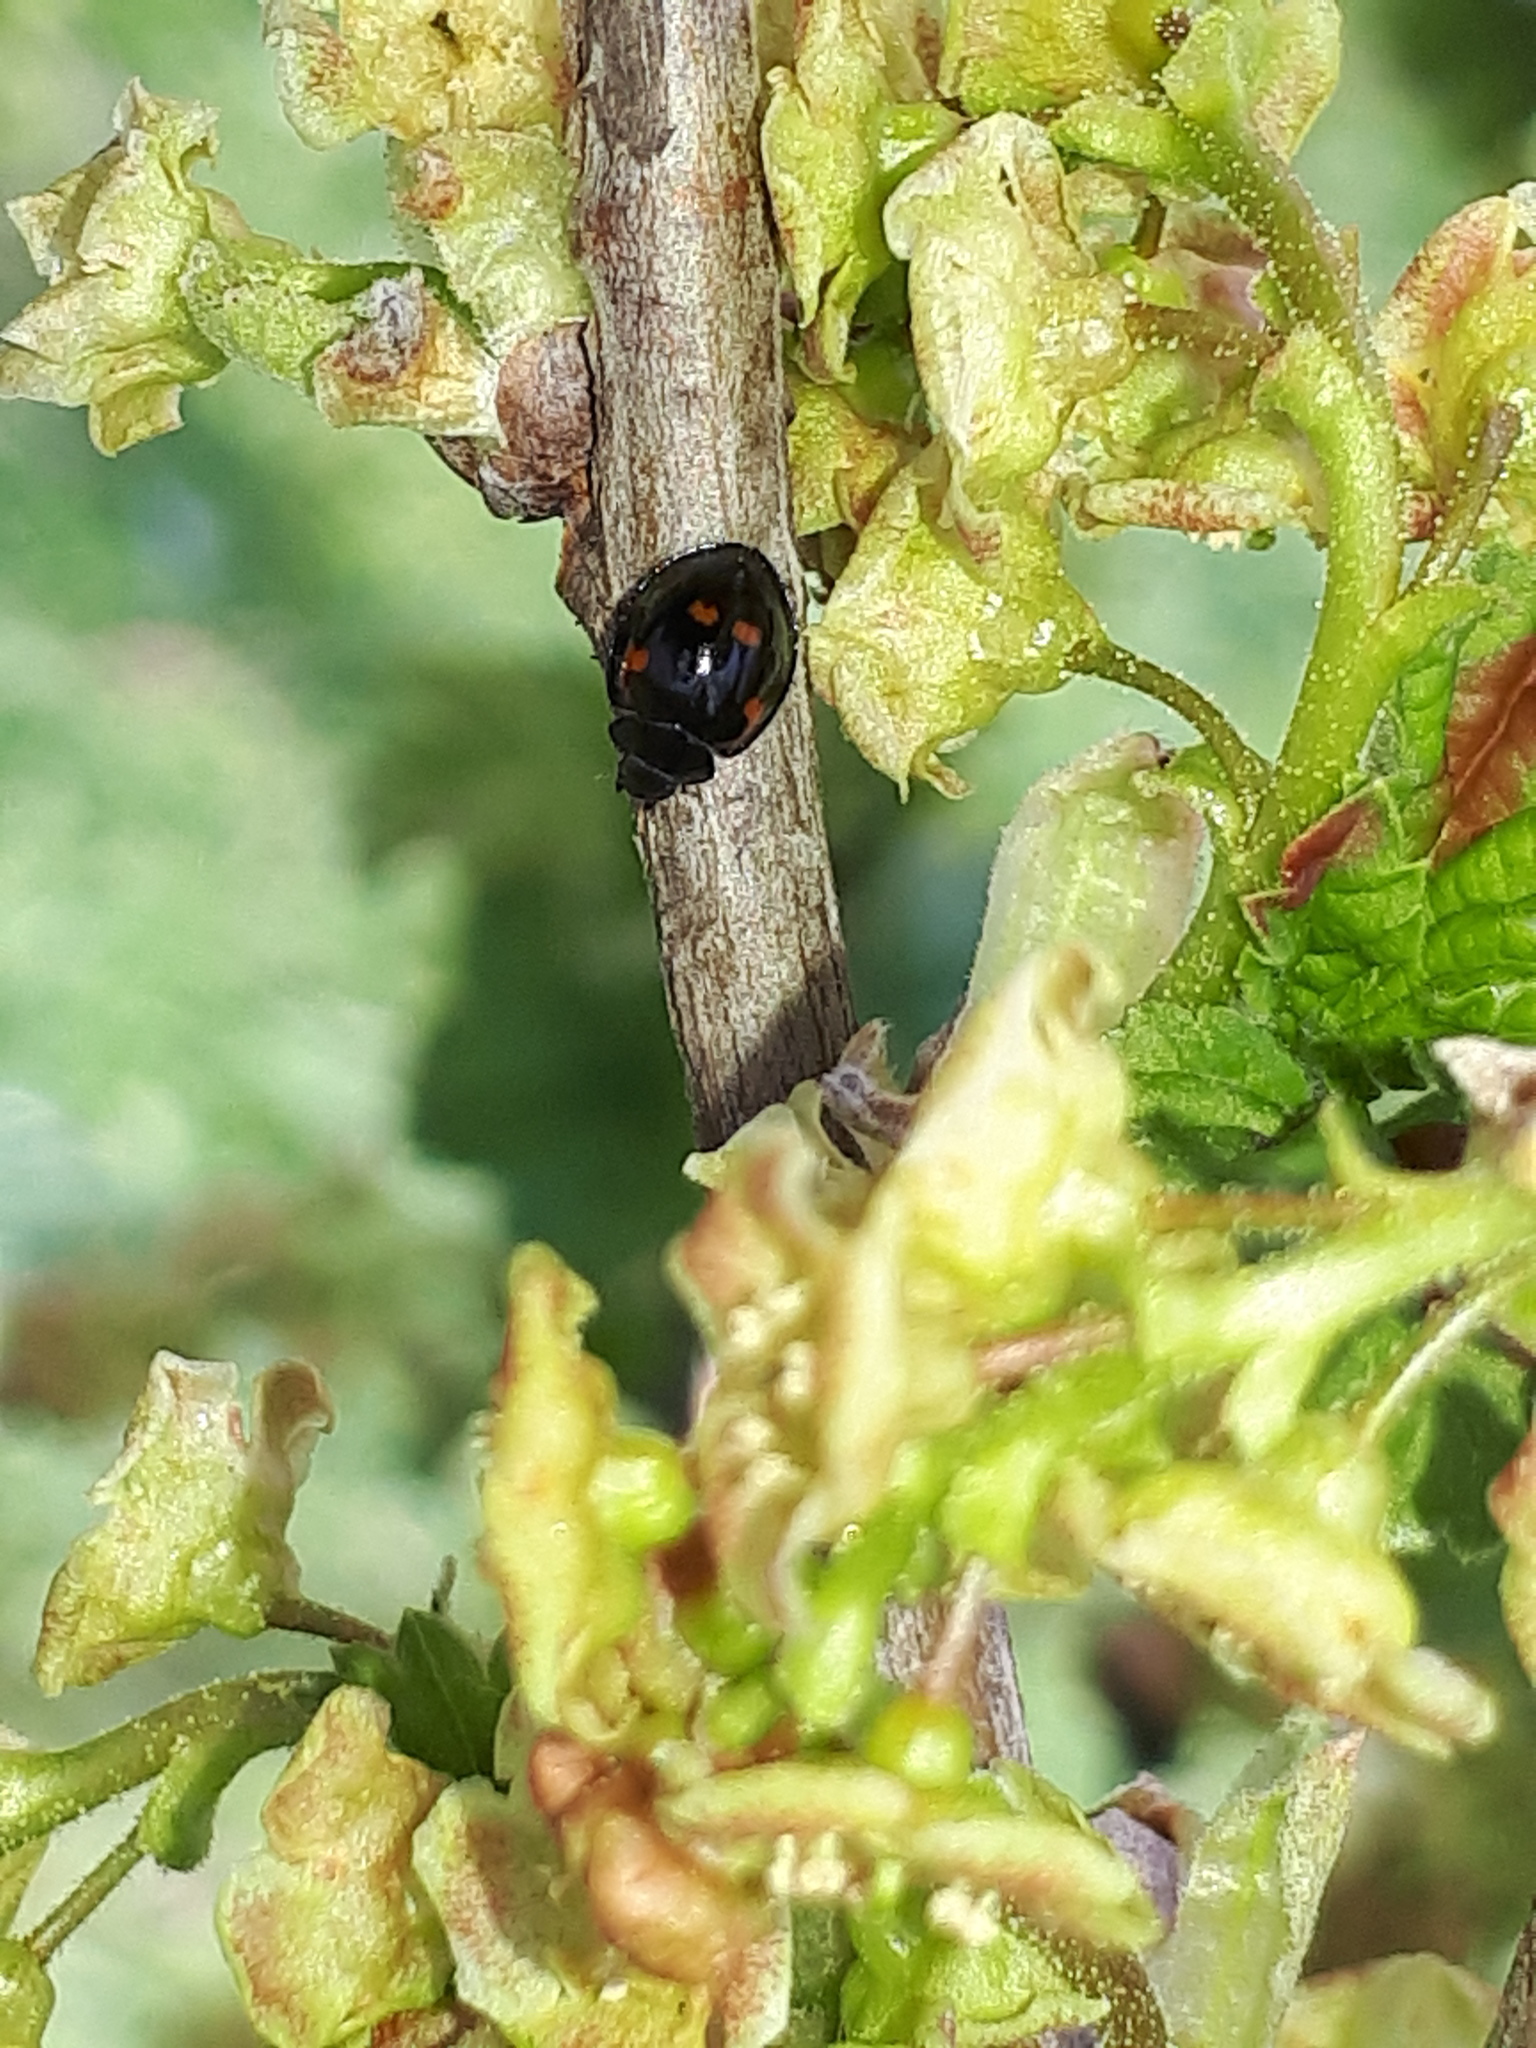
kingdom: Animalia
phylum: Arthropoda
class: Insecta
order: Coleoptera
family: Coccinellidae
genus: Brumus
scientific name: Brumus quadripustulatus
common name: Ladybird beetle
